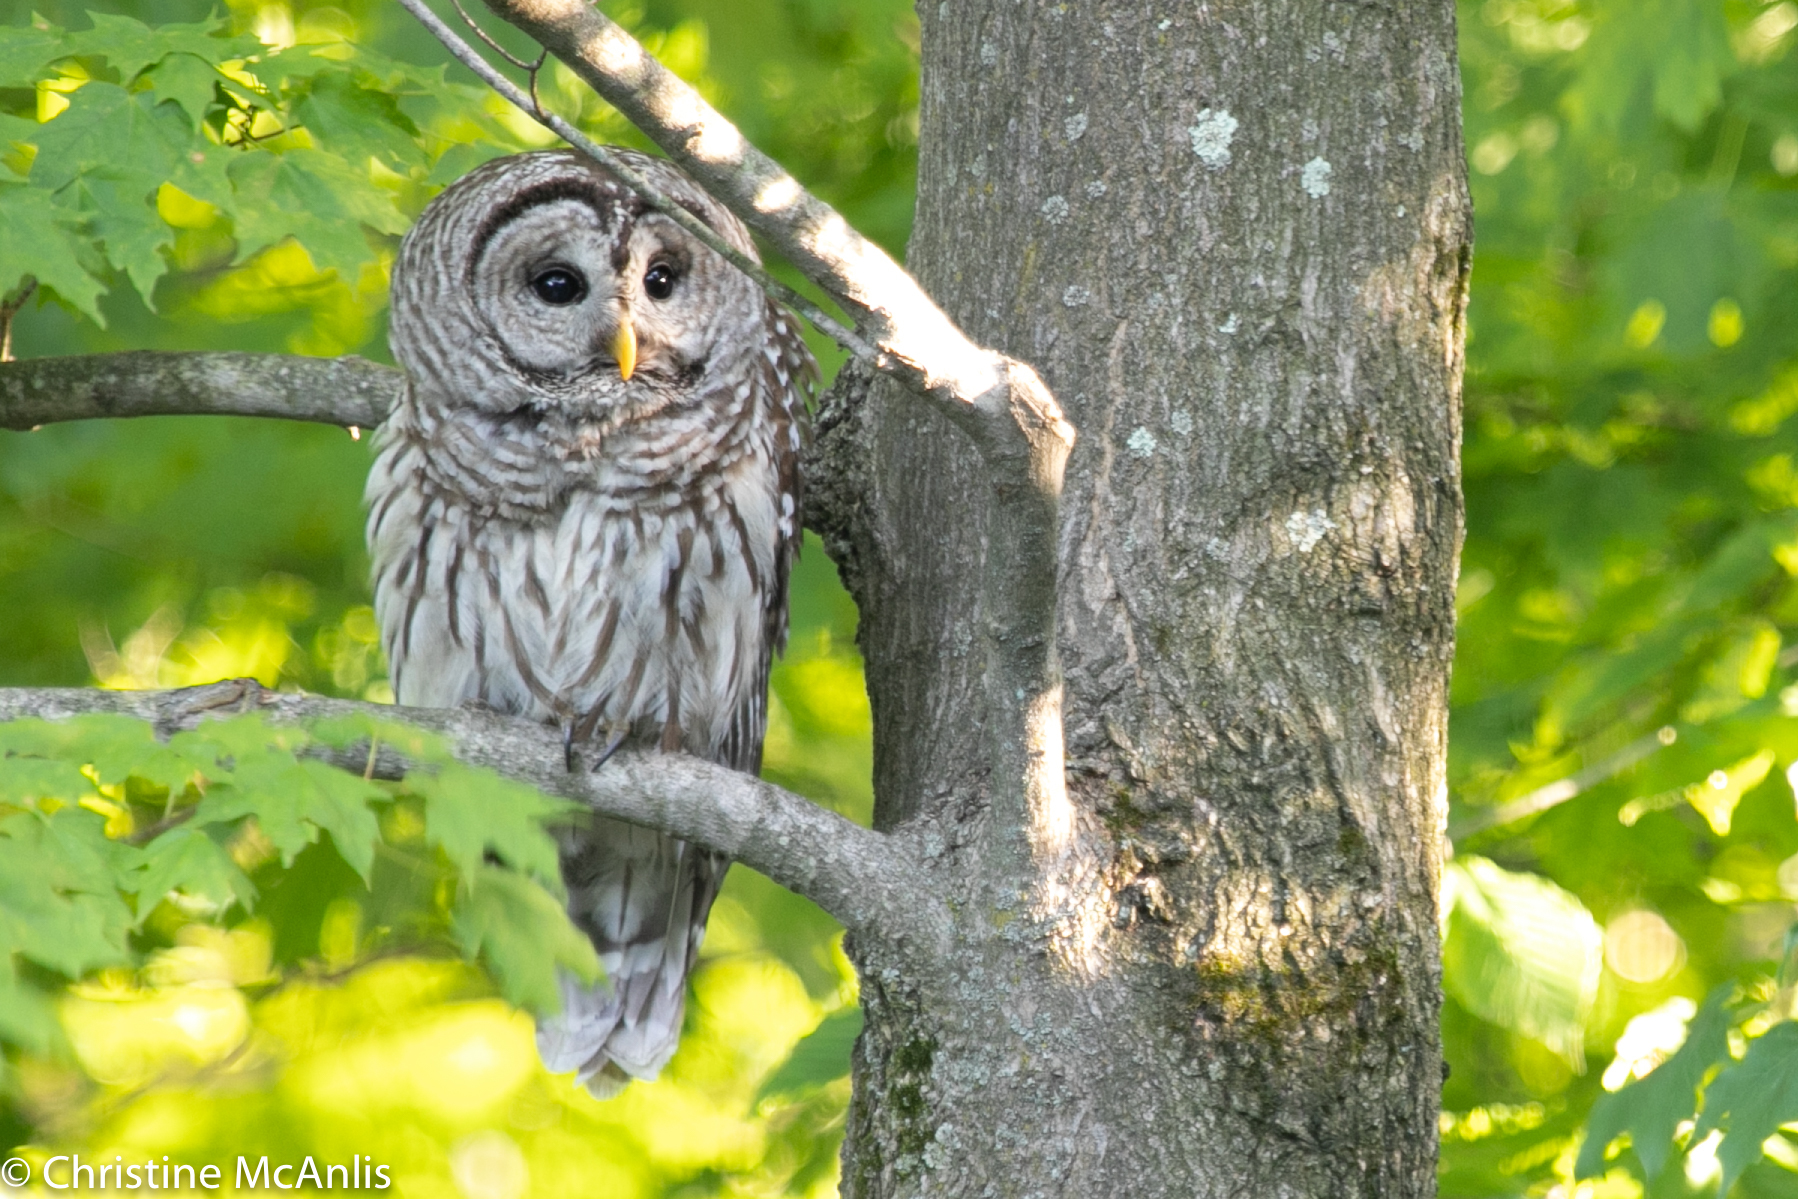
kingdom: Animalia
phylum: Chordata
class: Aves
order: Strigiformes
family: Strigidae
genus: Strix
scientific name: Strix varia
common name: Barred owl
